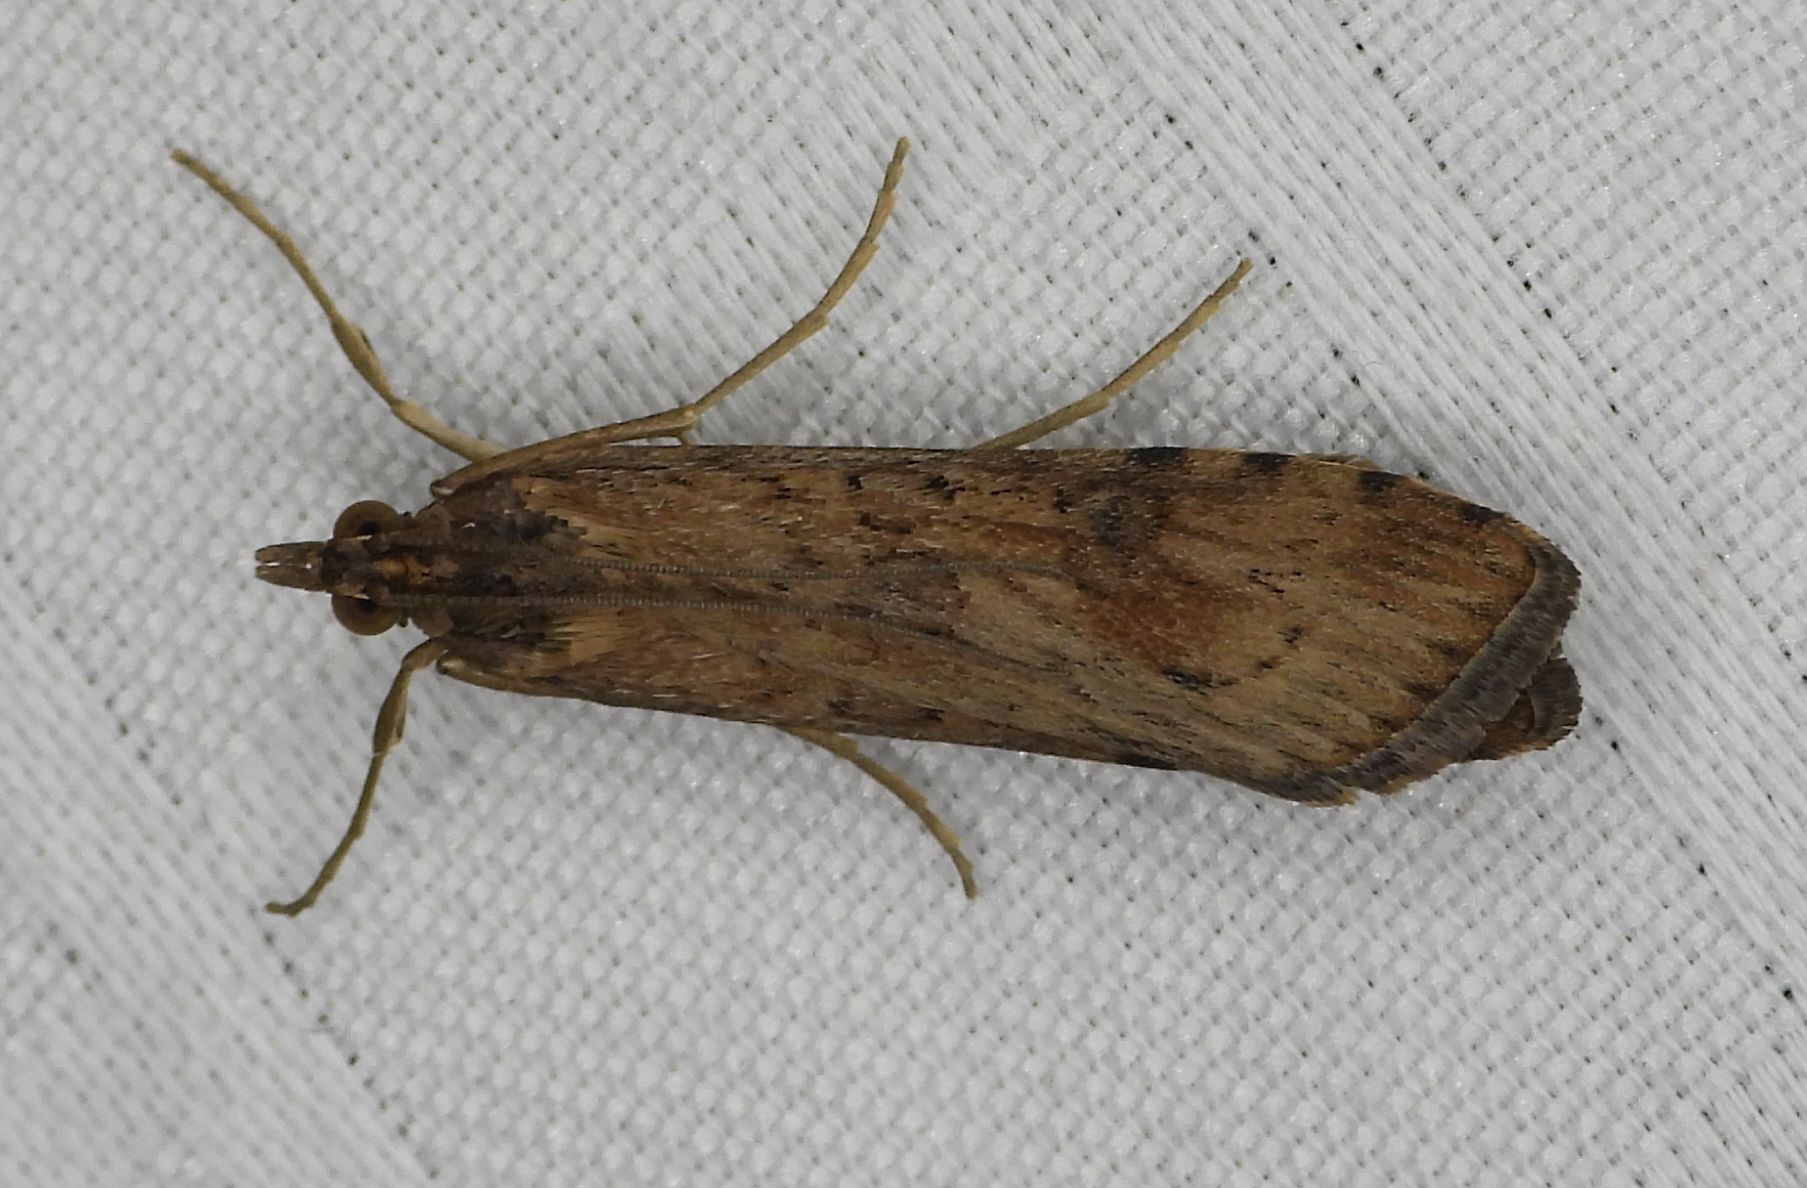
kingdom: Animalia
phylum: Arthropoda
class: Insecta
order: Lepidoptera
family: Crambidae
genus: Nomophila
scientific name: Nomophila nearctica
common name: American rush veneer
